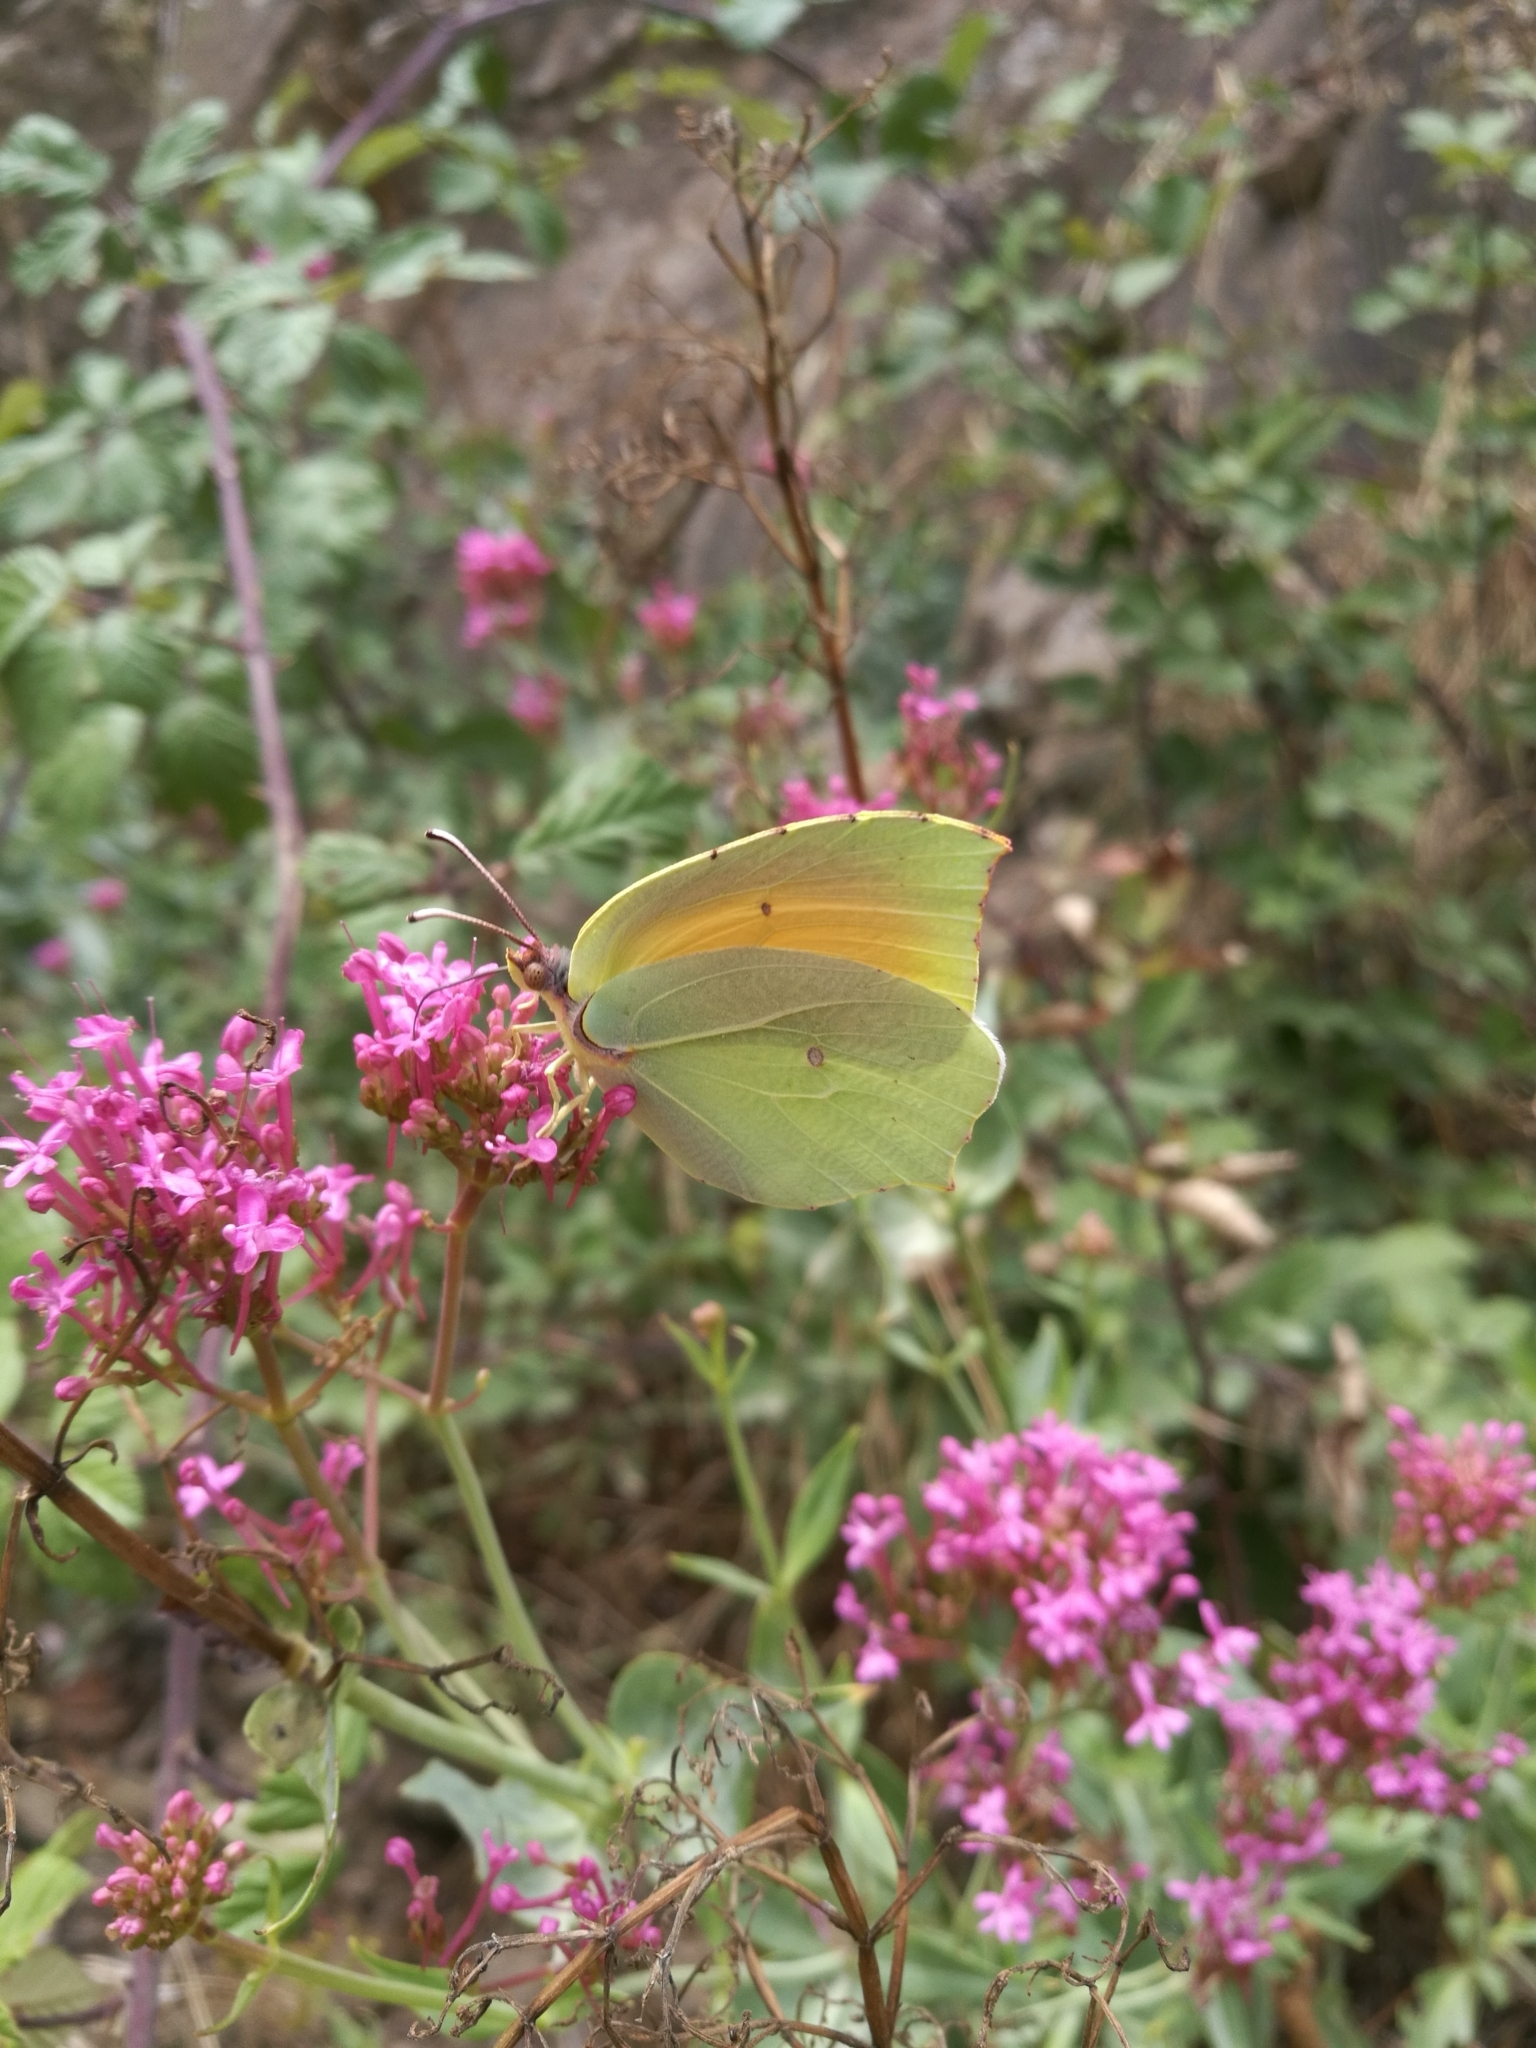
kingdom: Animalia
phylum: Arthropoda
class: Insecta
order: Lepidoptera
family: Pieridae
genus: Gonepteryx
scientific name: Gonepteryx cleopatra
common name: Cleopatra
